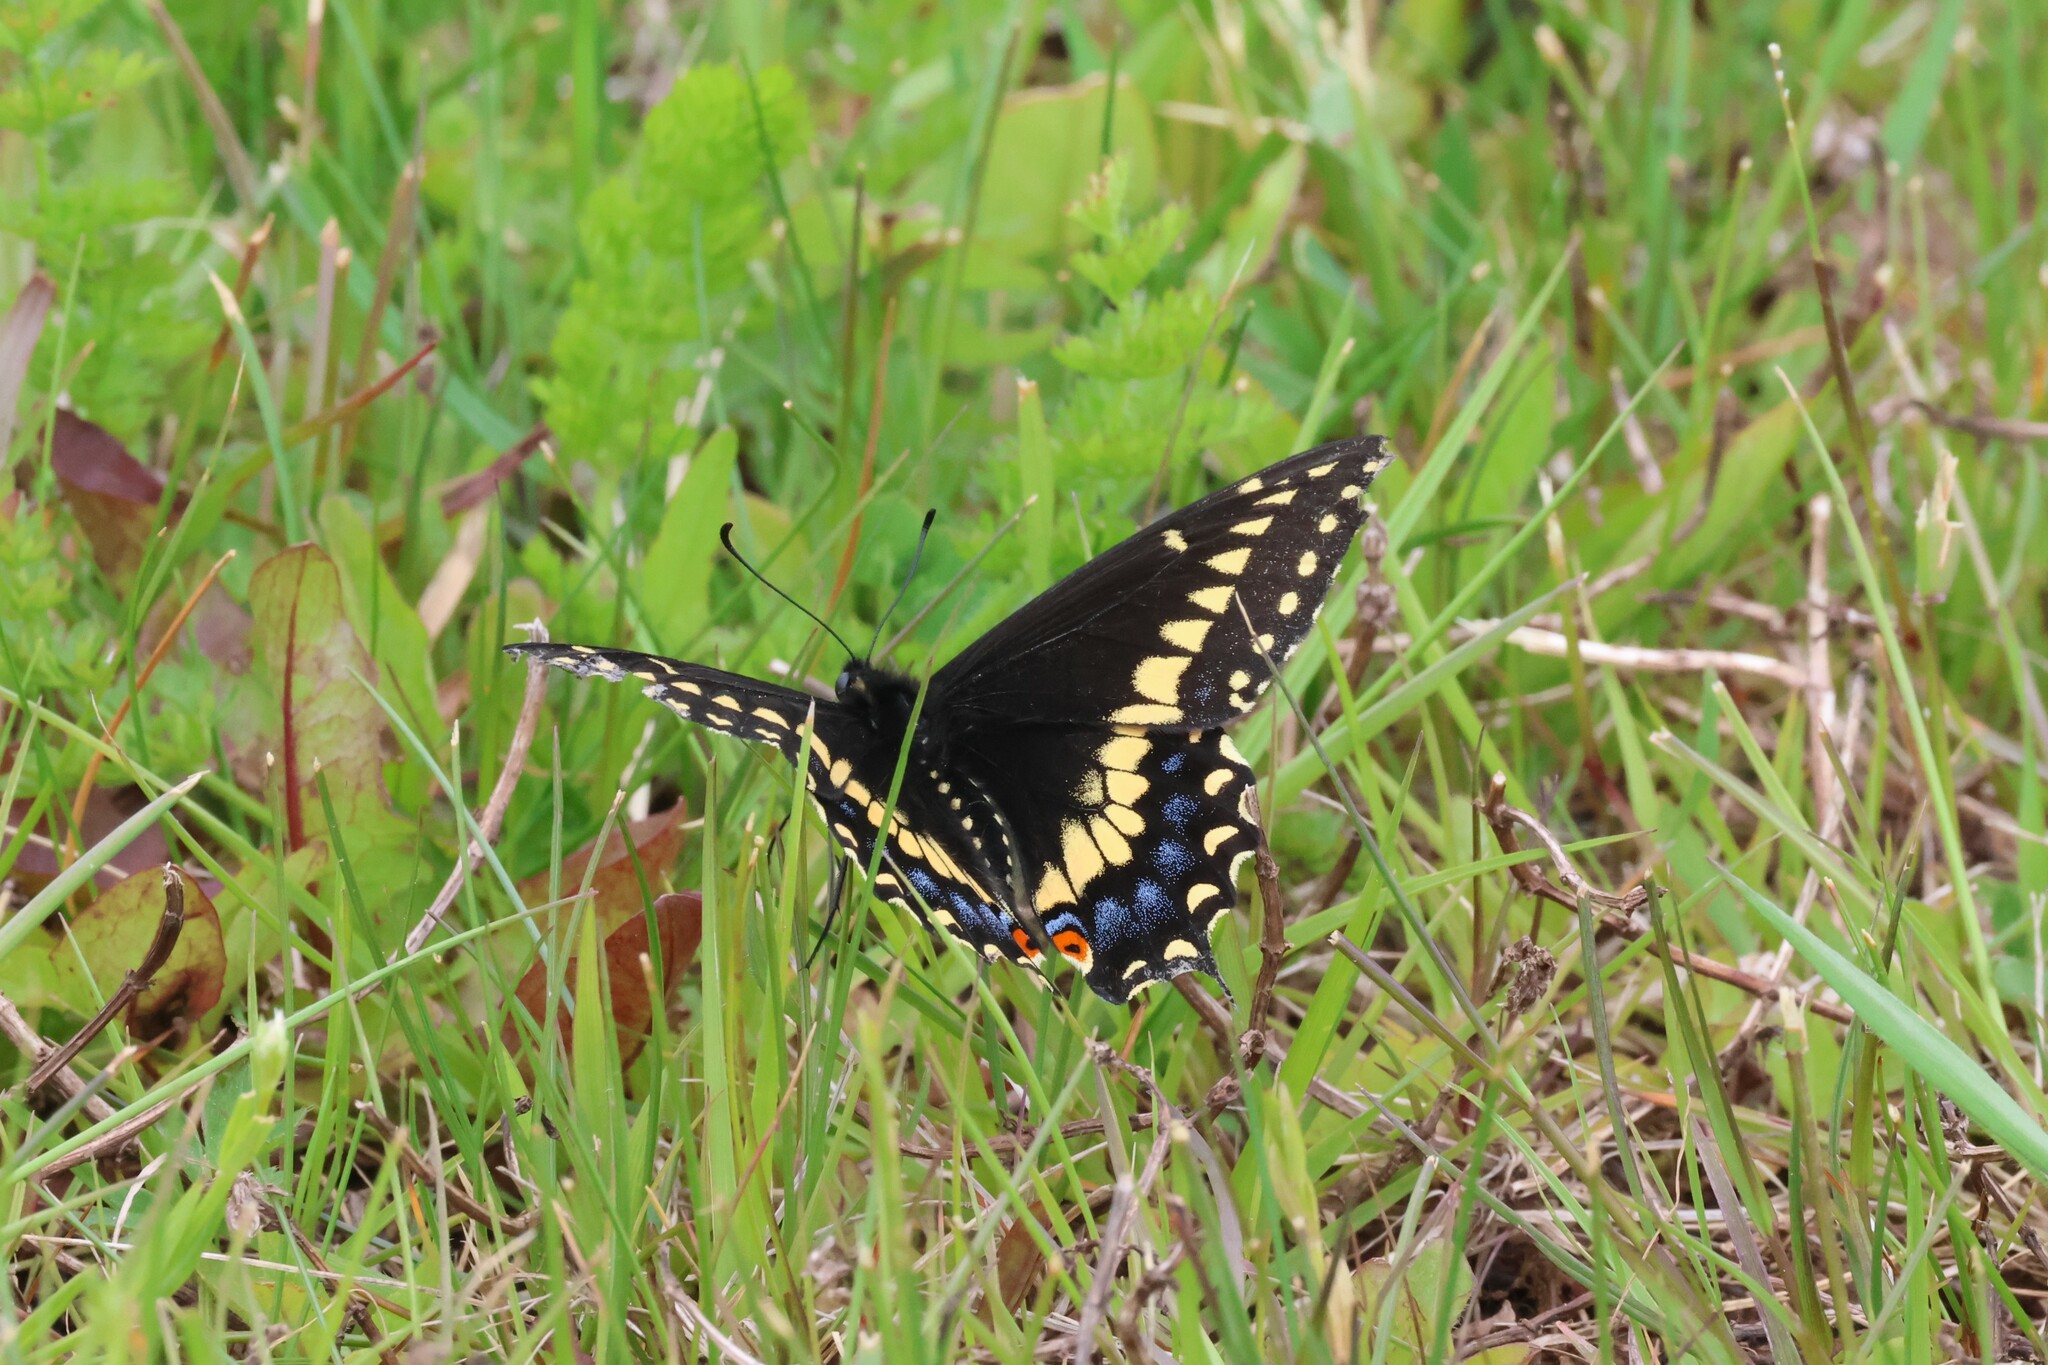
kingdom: Animalia
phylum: Arthropoda
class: Insecta
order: Lepidoptera
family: Papilionidae
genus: Papilio
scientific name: Papilio polyxenes
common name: Black swallowtail
